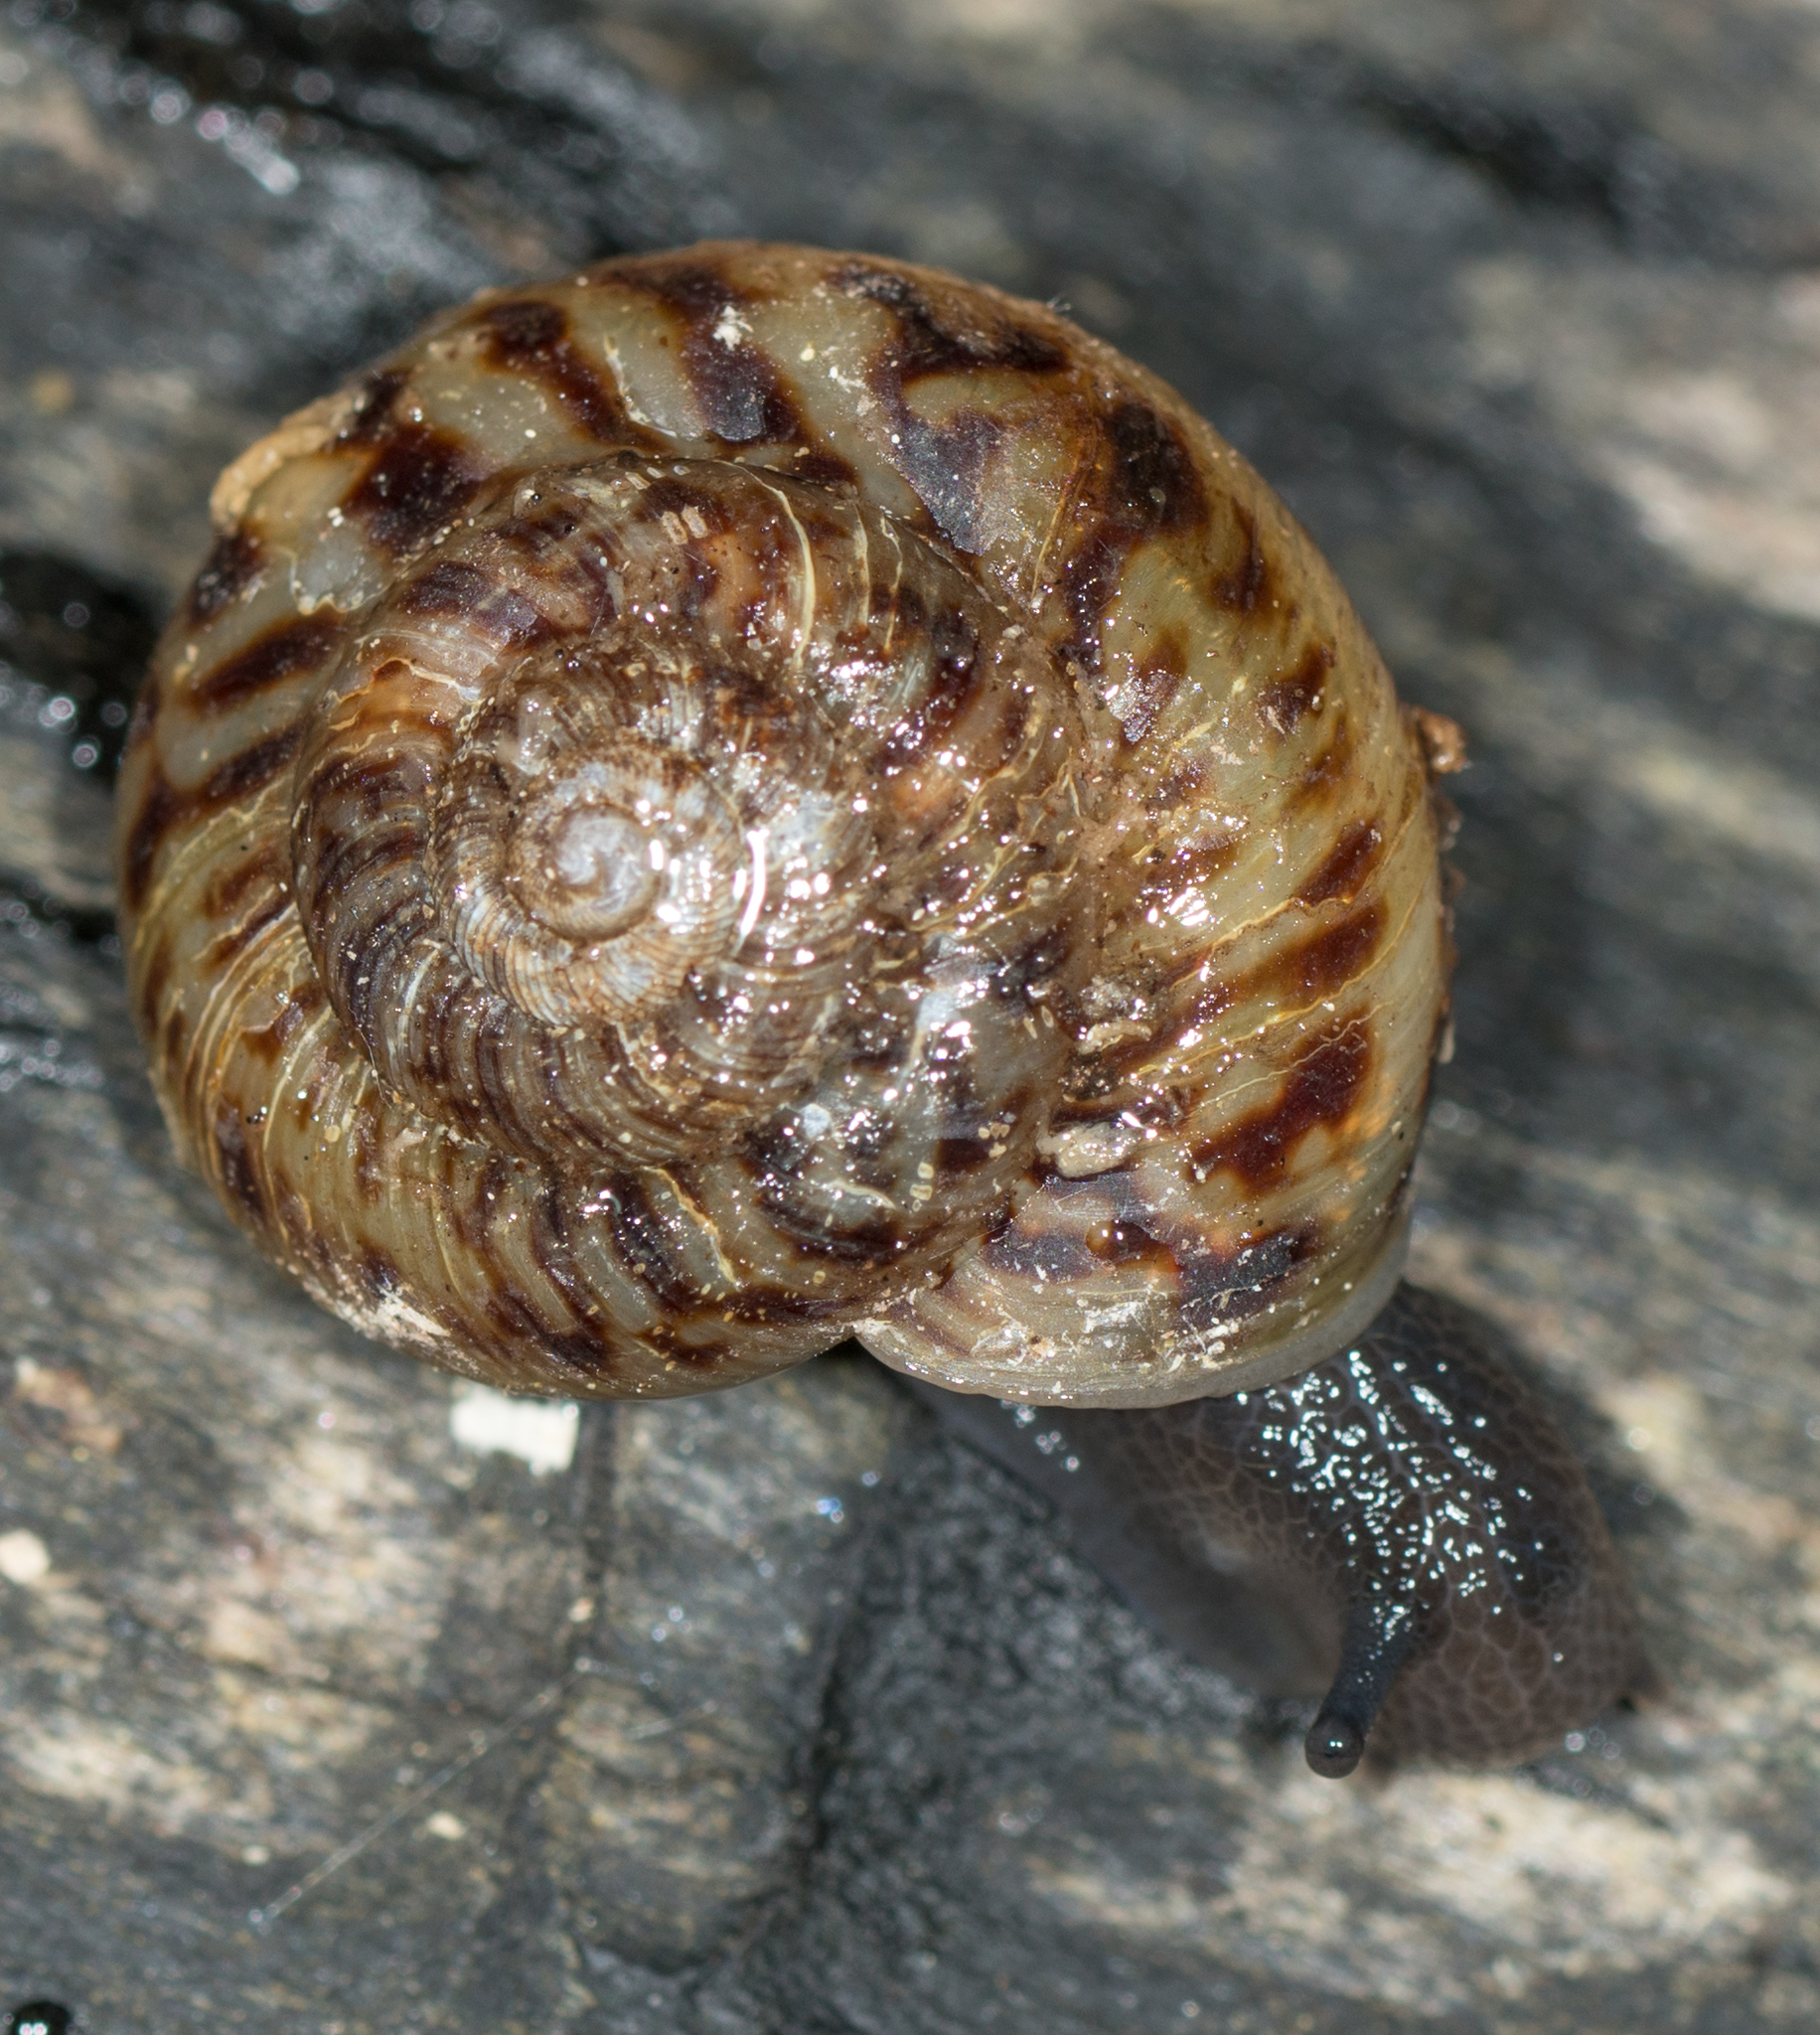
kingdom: Animalia
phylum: Mollusca
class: Gastropoda
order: Stylommatophora
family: Discidae
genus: Anguispira
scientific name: Anguispira fergusoni
